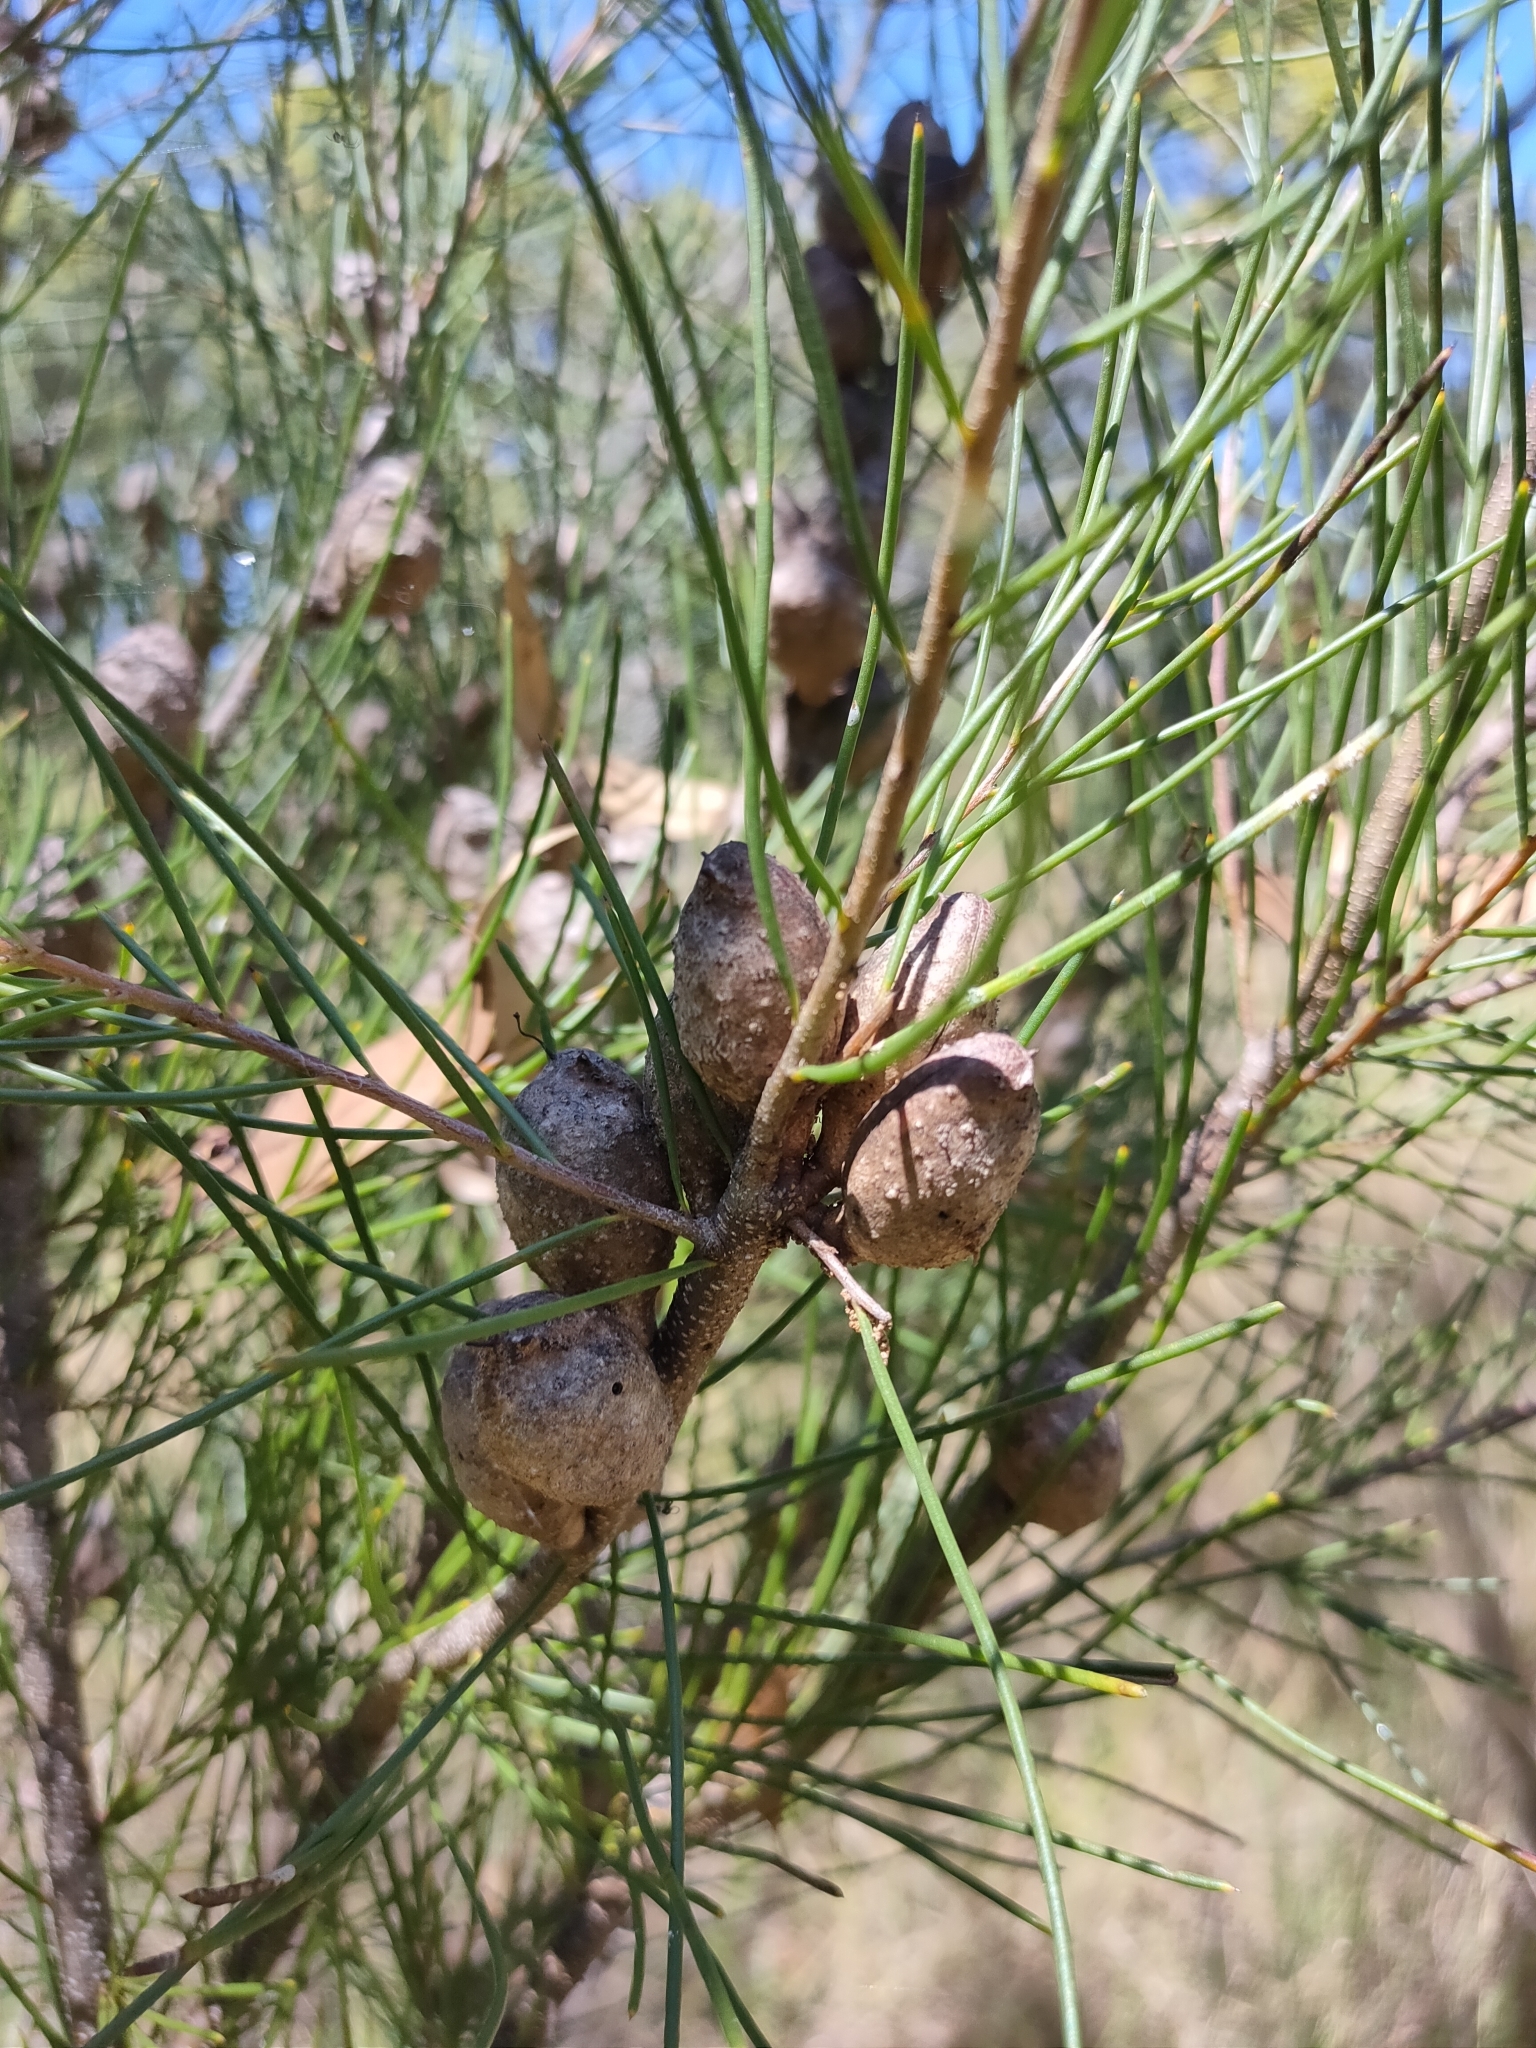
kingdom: Plantae
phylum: Tracheophyta
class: Magnoliopsida
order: Proteales
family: Proteaceae
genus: Hakea
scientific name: Hakea actites
